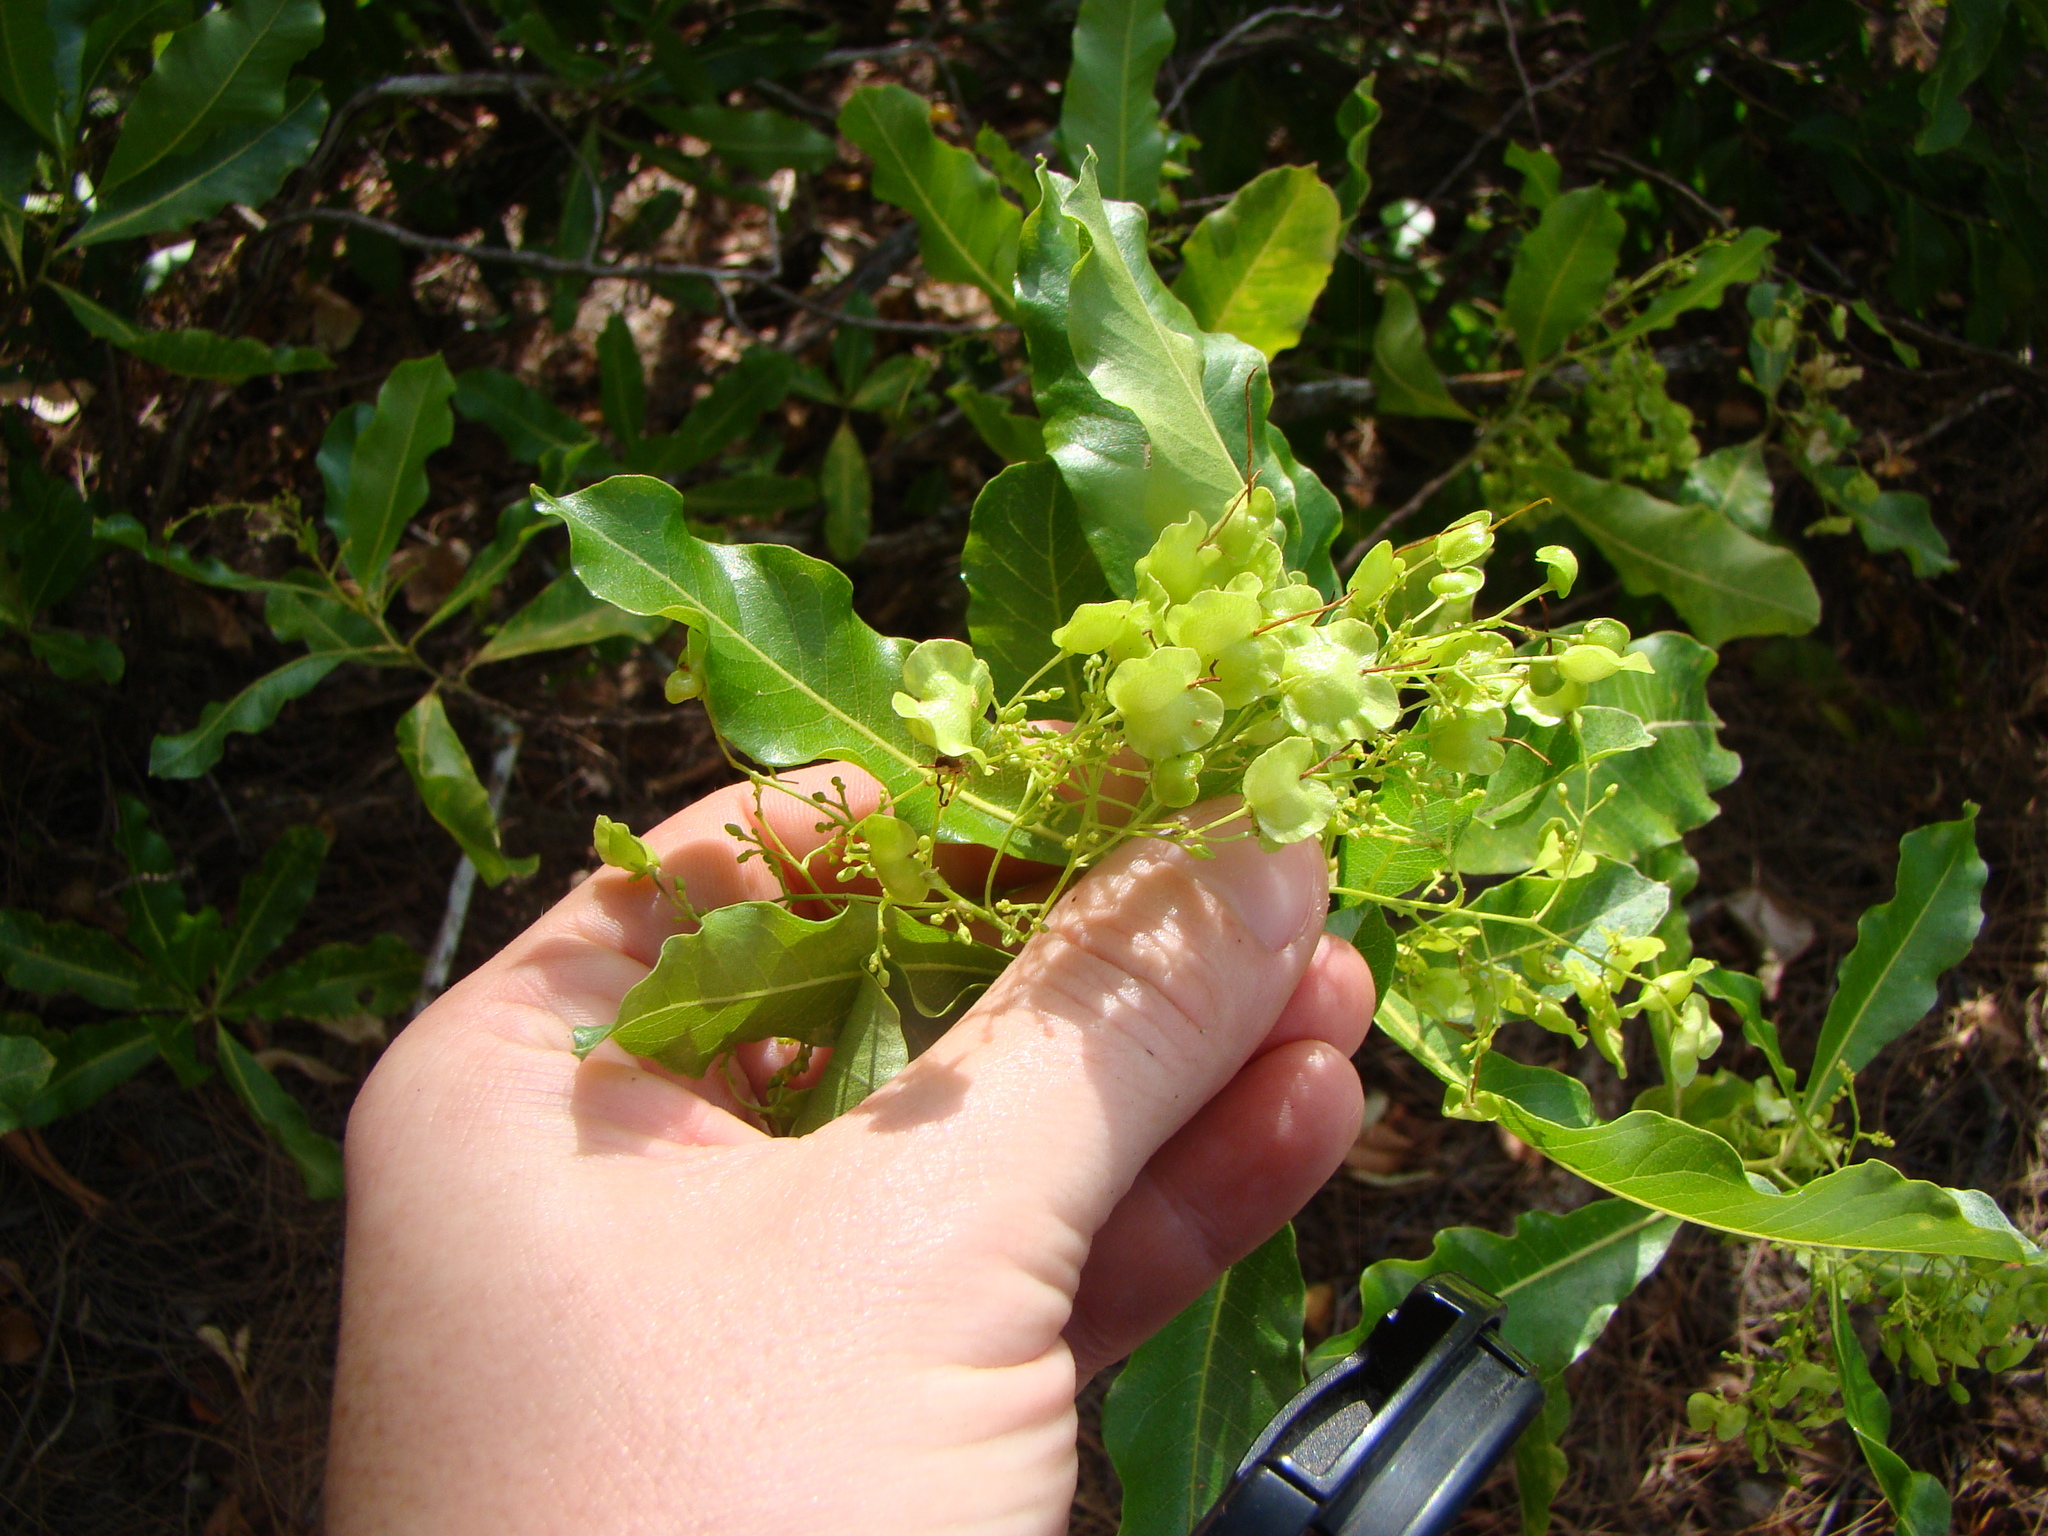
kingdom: Plantae
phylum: Tracheophyta
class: Magnoliopsida
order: Sapindales
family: Sapindaceae
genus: Dodonaea
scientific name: Dodonaea viscosa
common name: Hopbush
